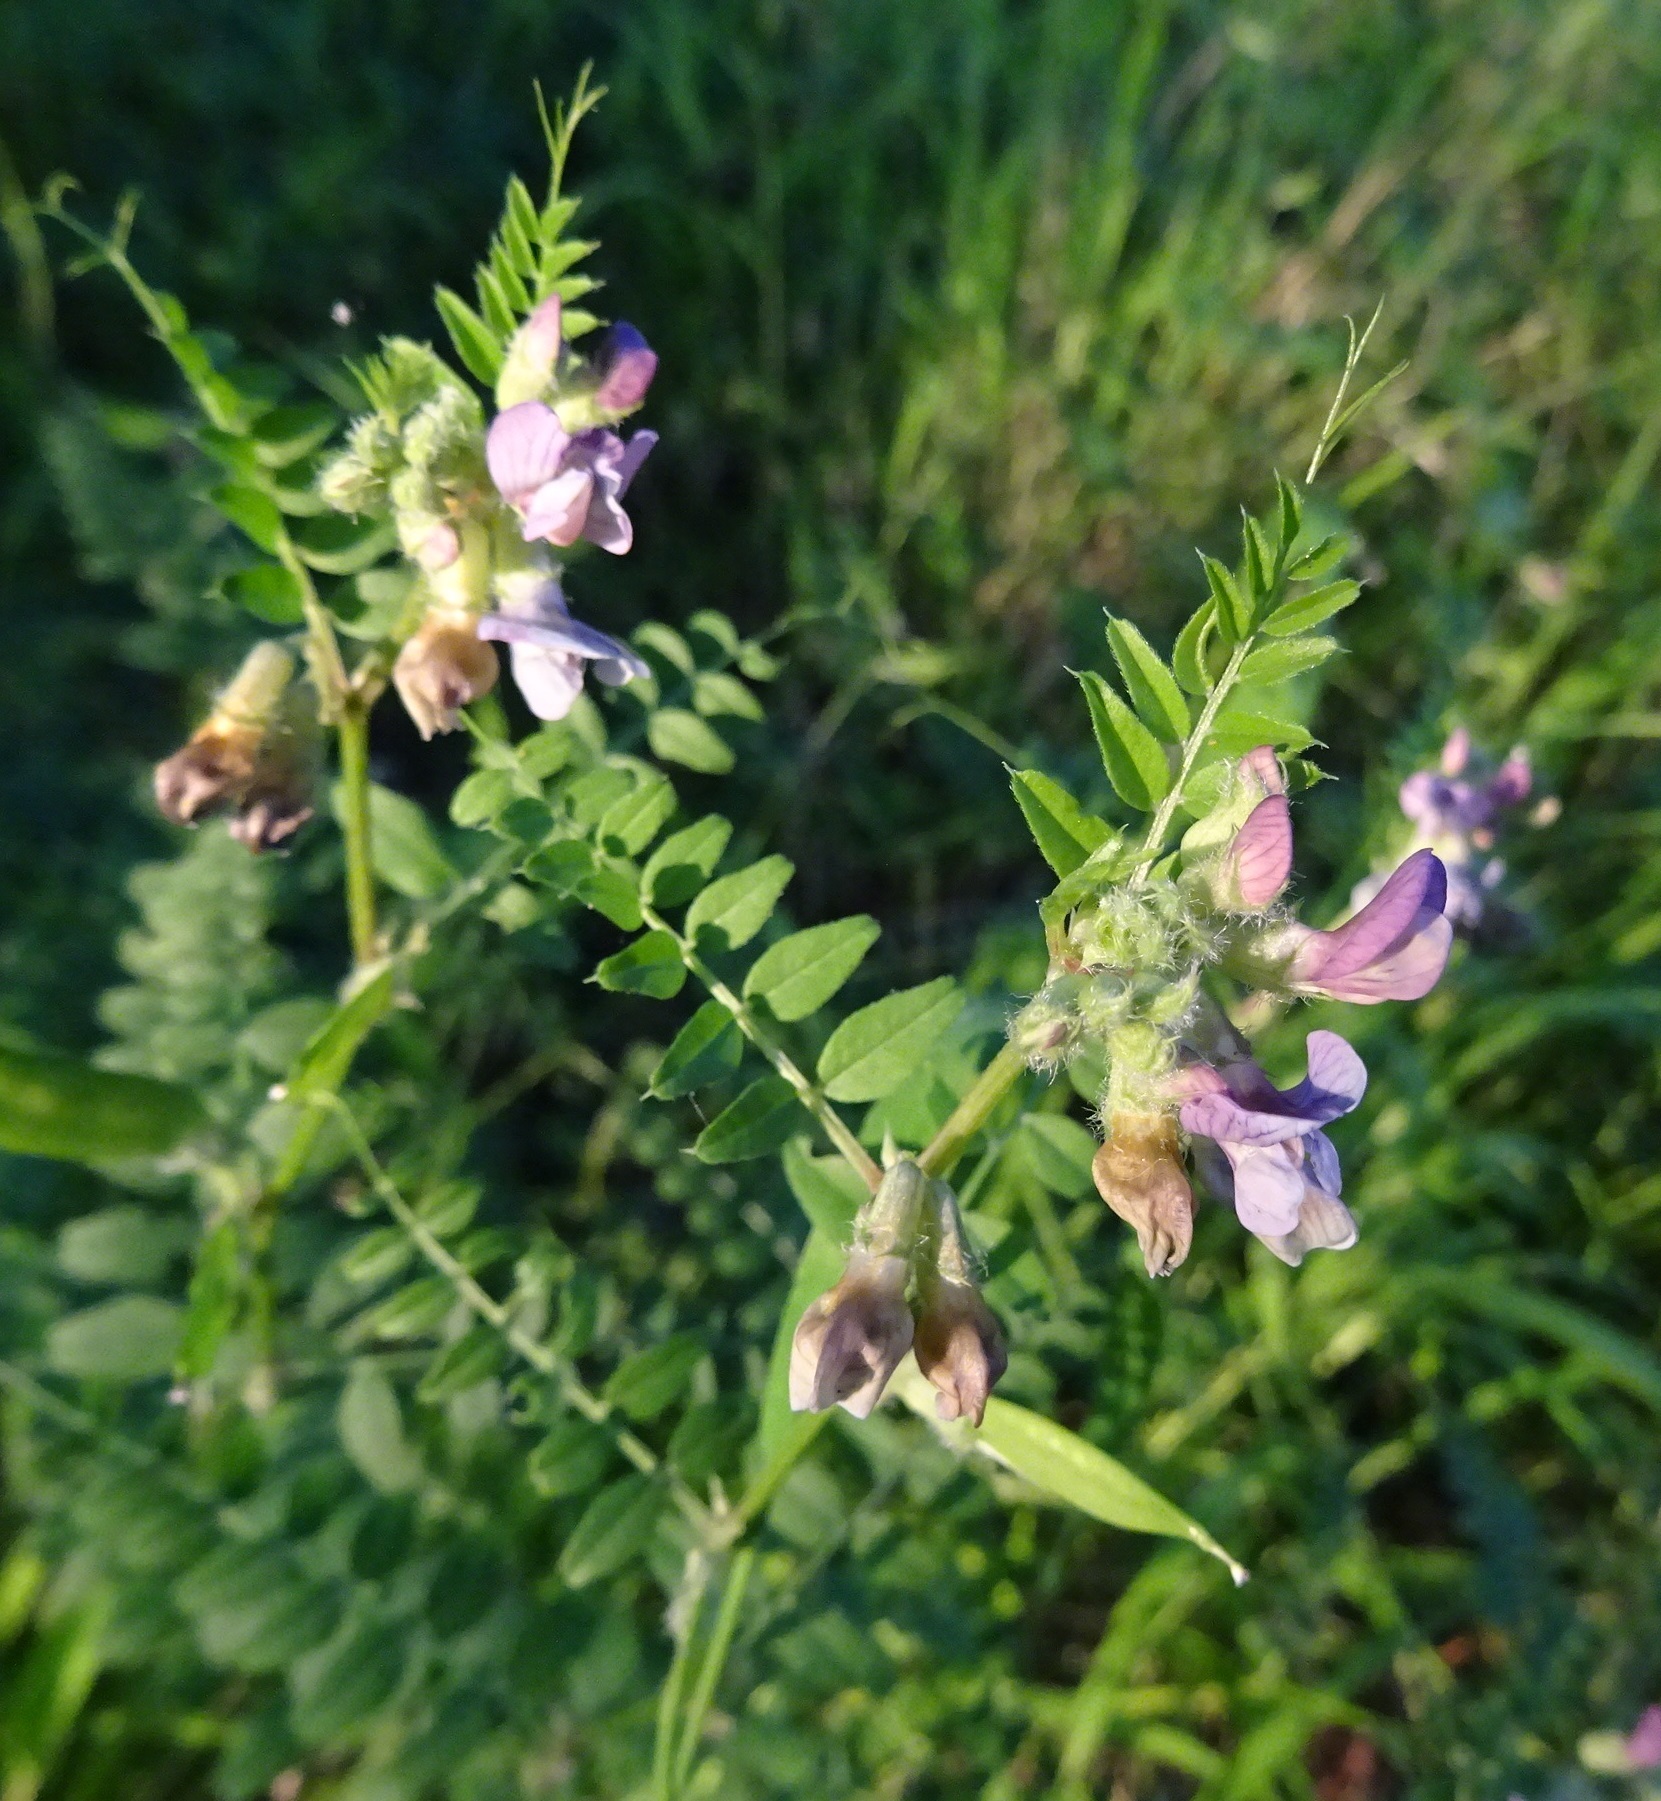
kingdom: Plantae
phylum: Tracheophyta
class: Magnoliopsida
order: Fabales
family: Fabaceae
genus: Vicia
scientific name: Vicia sepium
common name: Bush vetch
